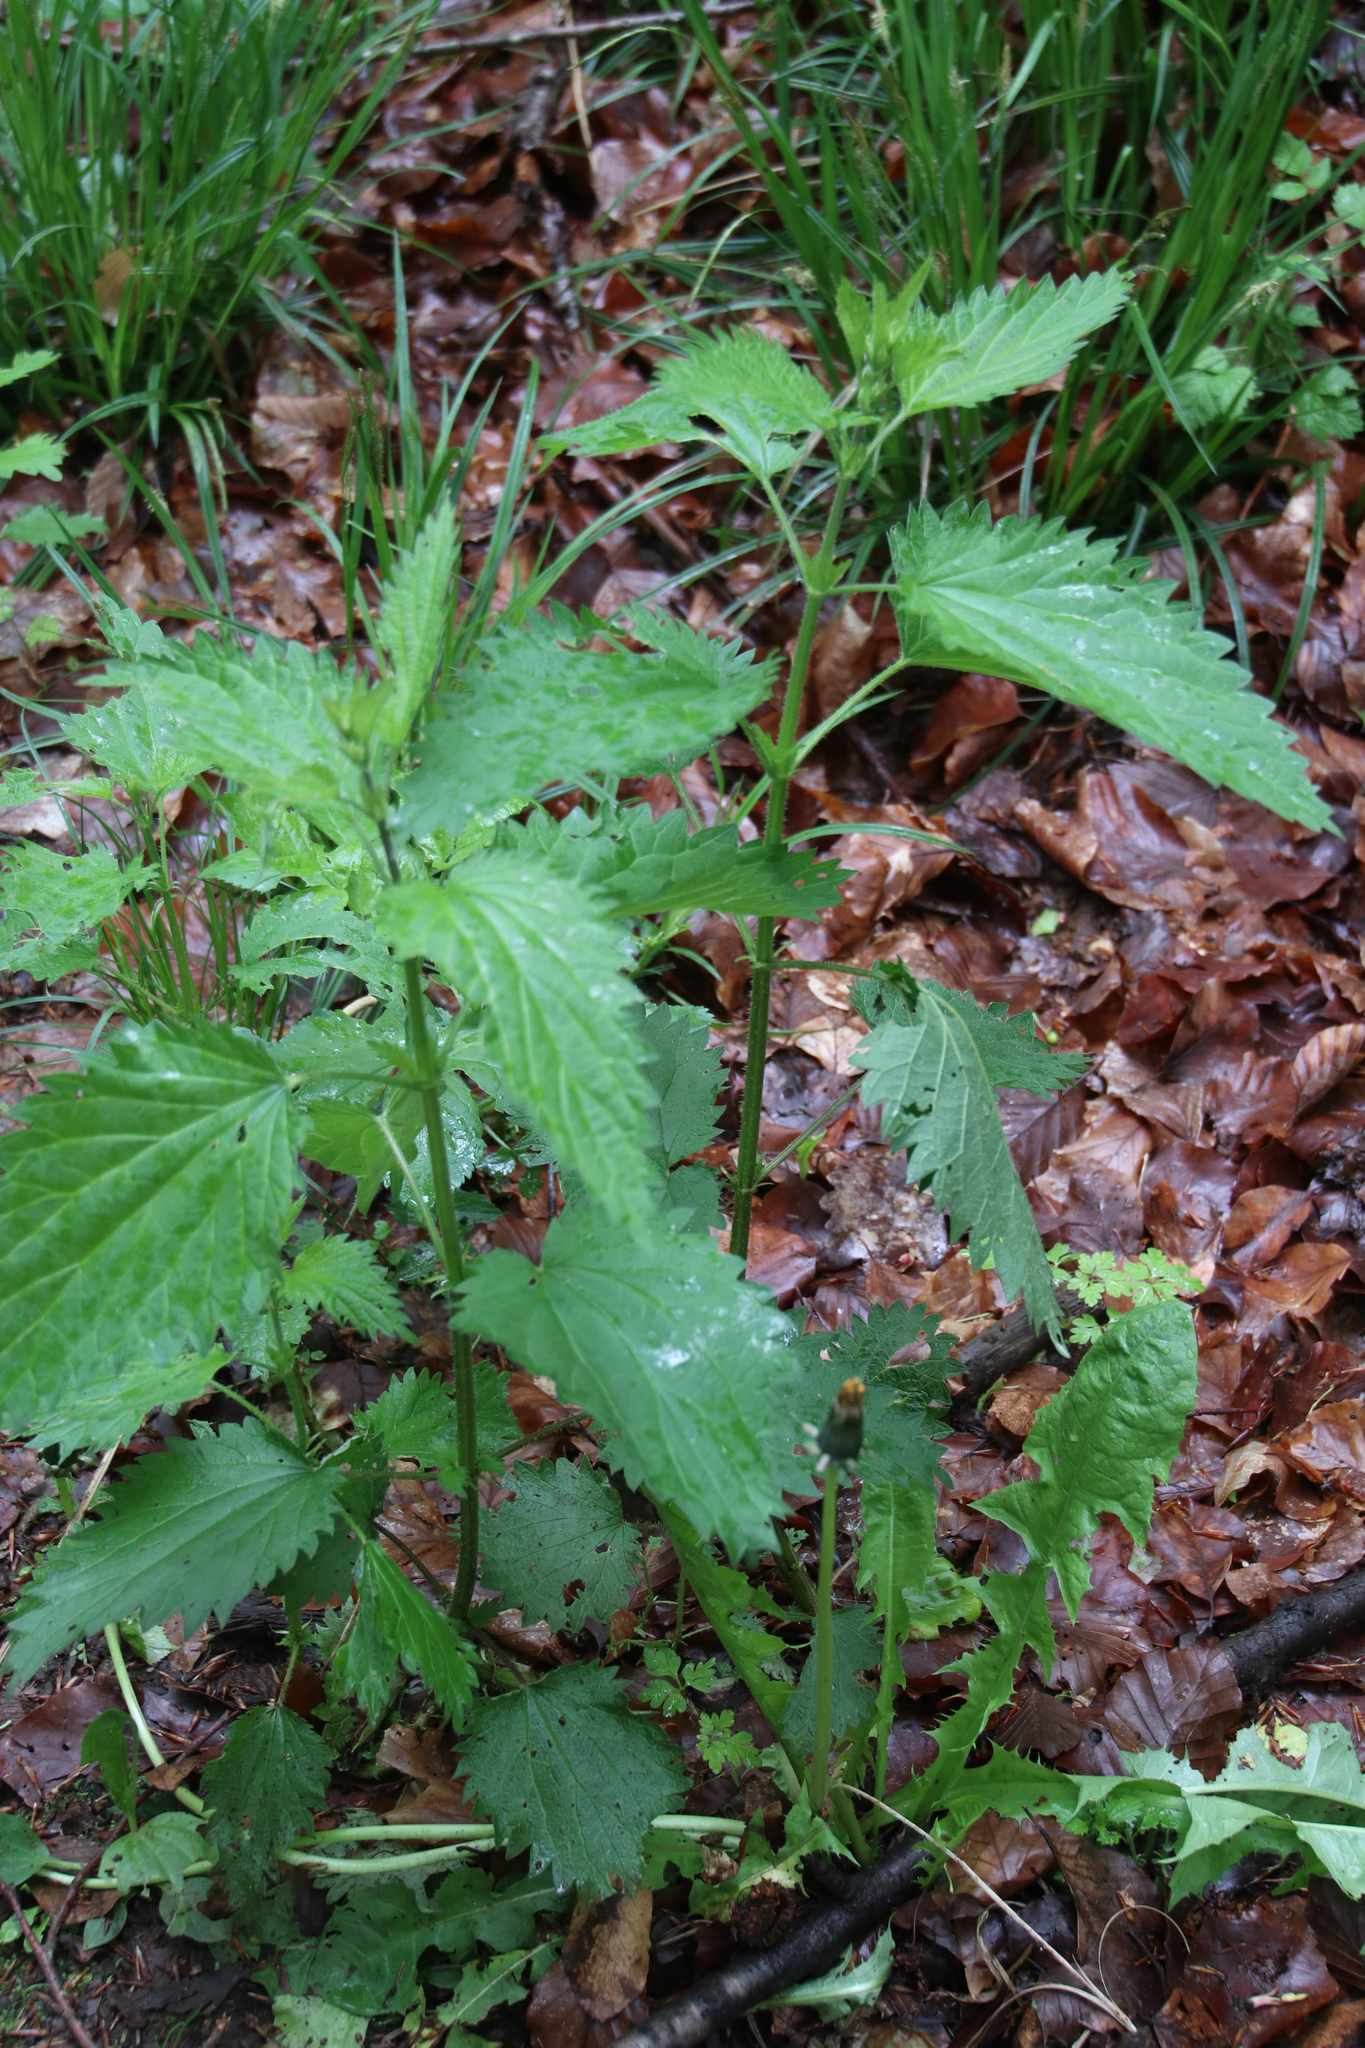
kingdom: Plantae
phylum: Tracheophyta
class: Magnoliopsida
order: Rosales
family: Urticaceae
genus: Urtica
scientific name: Urtica dioica
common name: Common nettle
